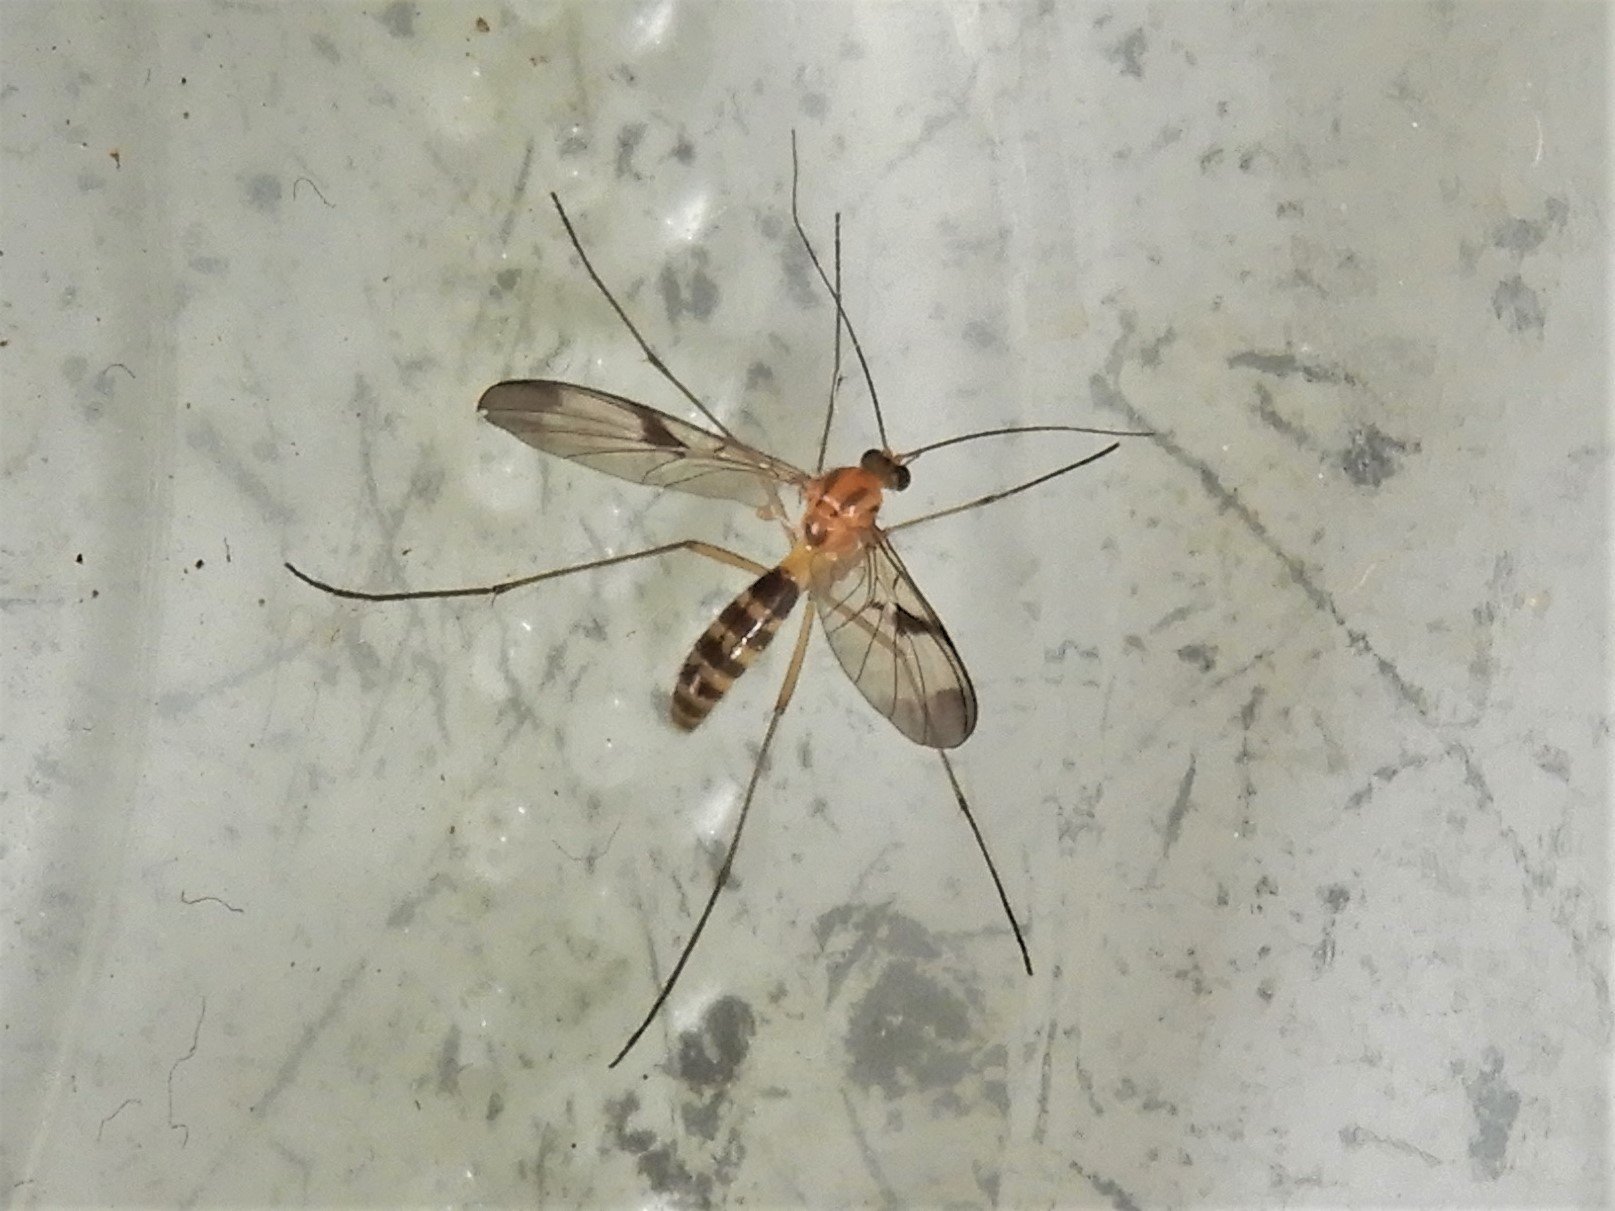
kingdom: Animalia
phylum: Arthropoda
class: Insecta
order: Diptera
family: Keroplatidae
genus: Macrocera
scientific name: Macrocera scoparia
